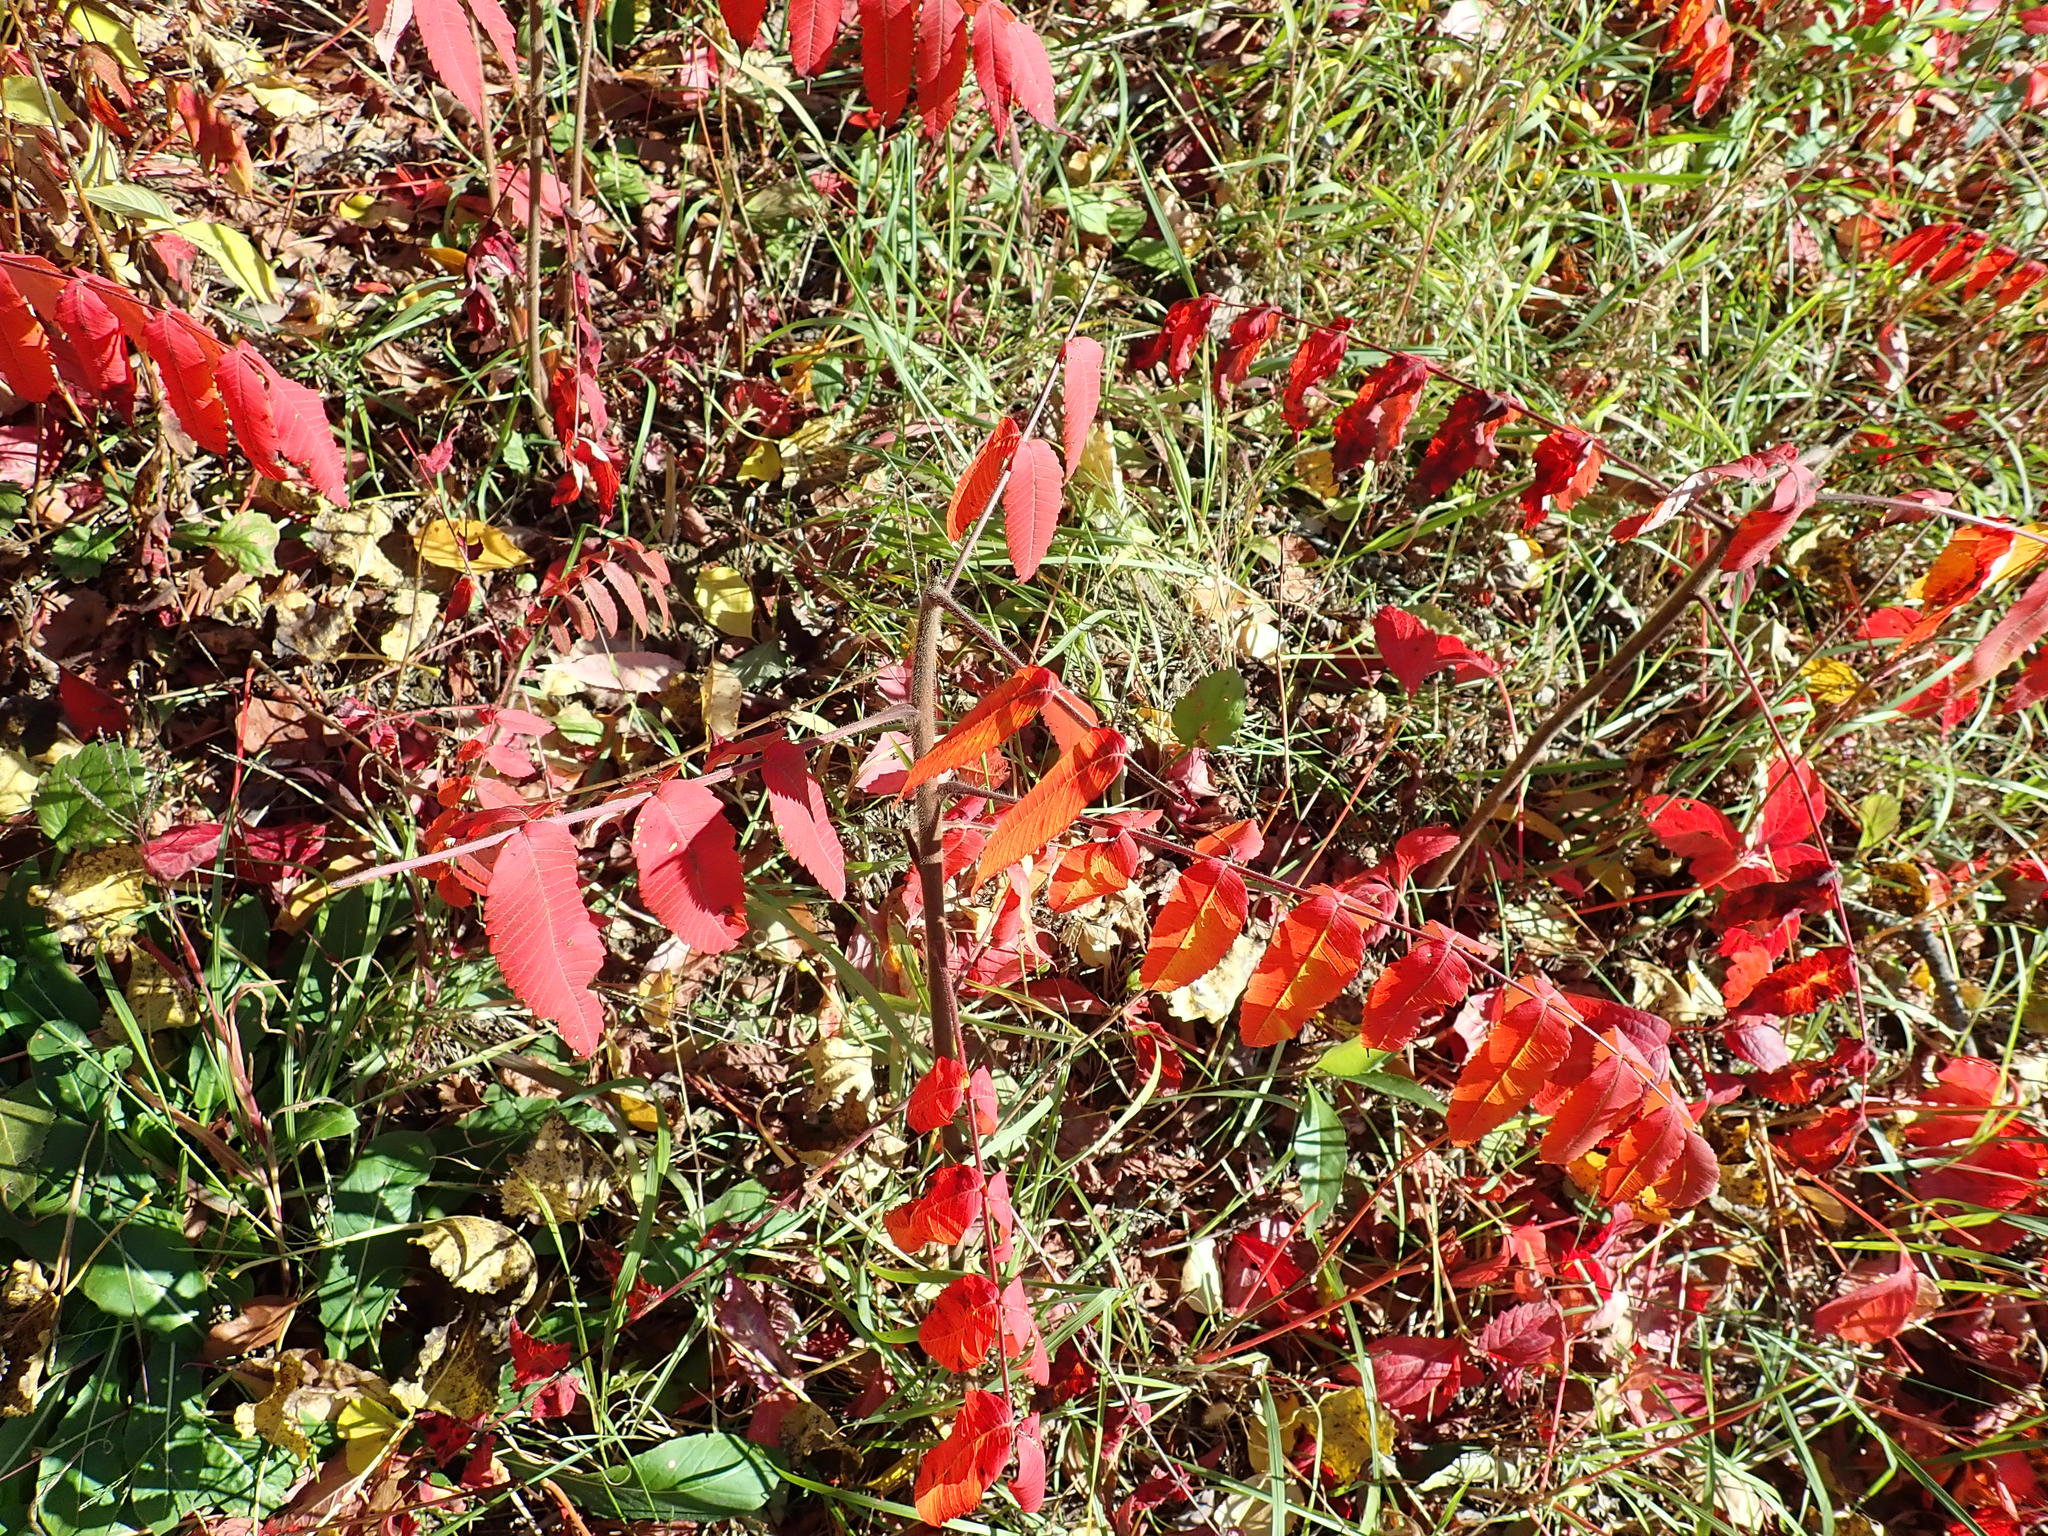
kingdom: Plantae
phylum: Tracheophyta
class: Magnoliopsida
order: Sapindales
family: Anacardiaceae
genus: Rhus
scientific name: Rhus typhina
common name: Staghorn sumac
